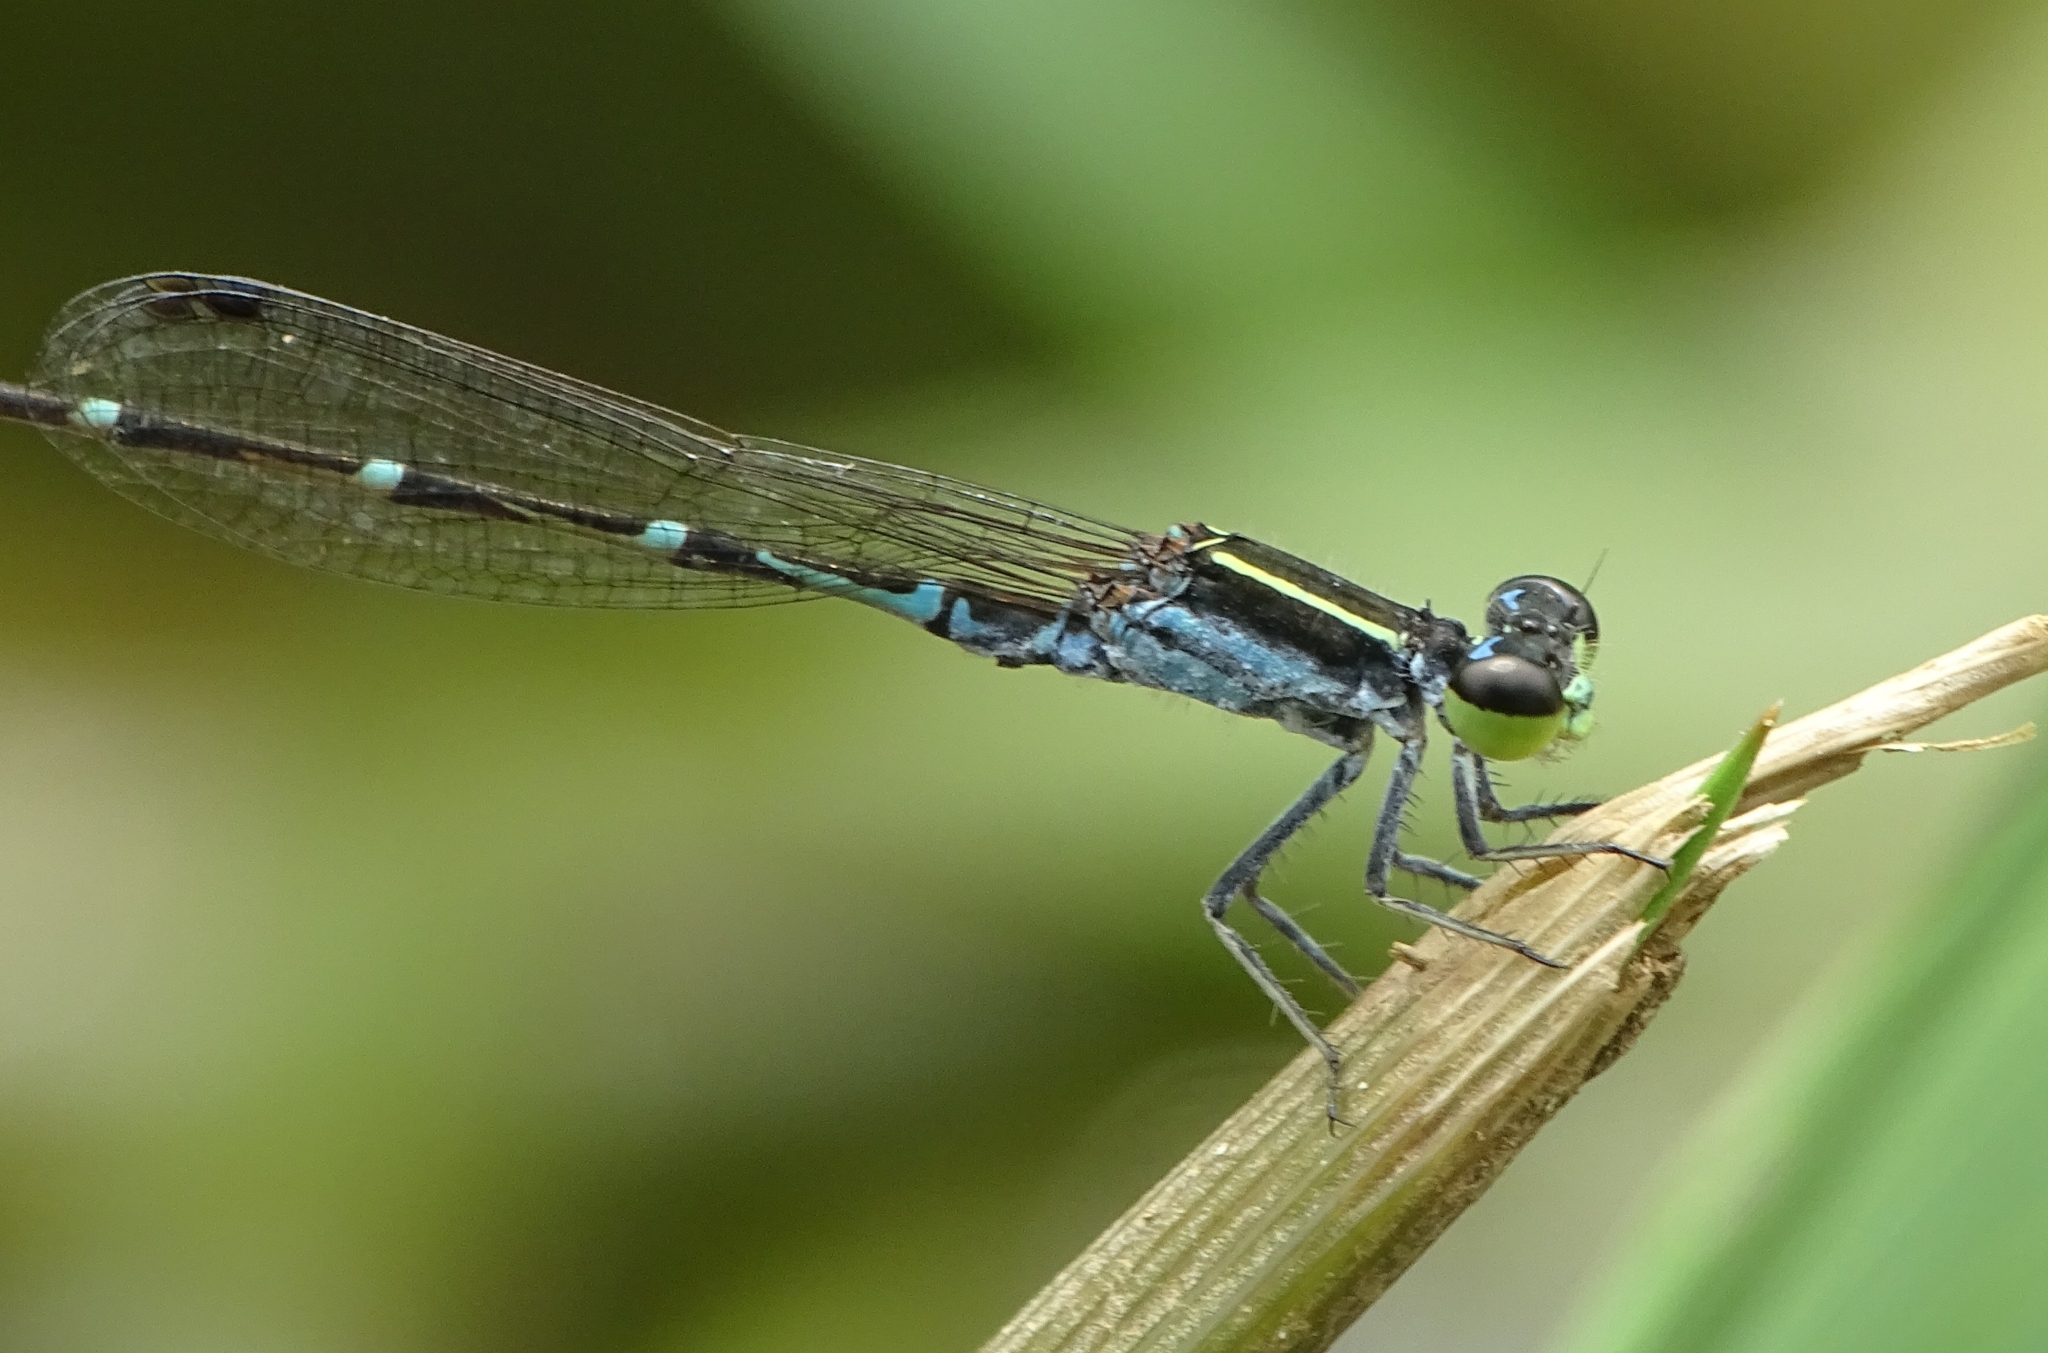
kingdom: Animalia
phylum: Arthropoda
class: Insecta
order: Odonata
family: Coenagrionidae
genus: Agriocnemis
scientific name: Agriocnemis splendidissima
